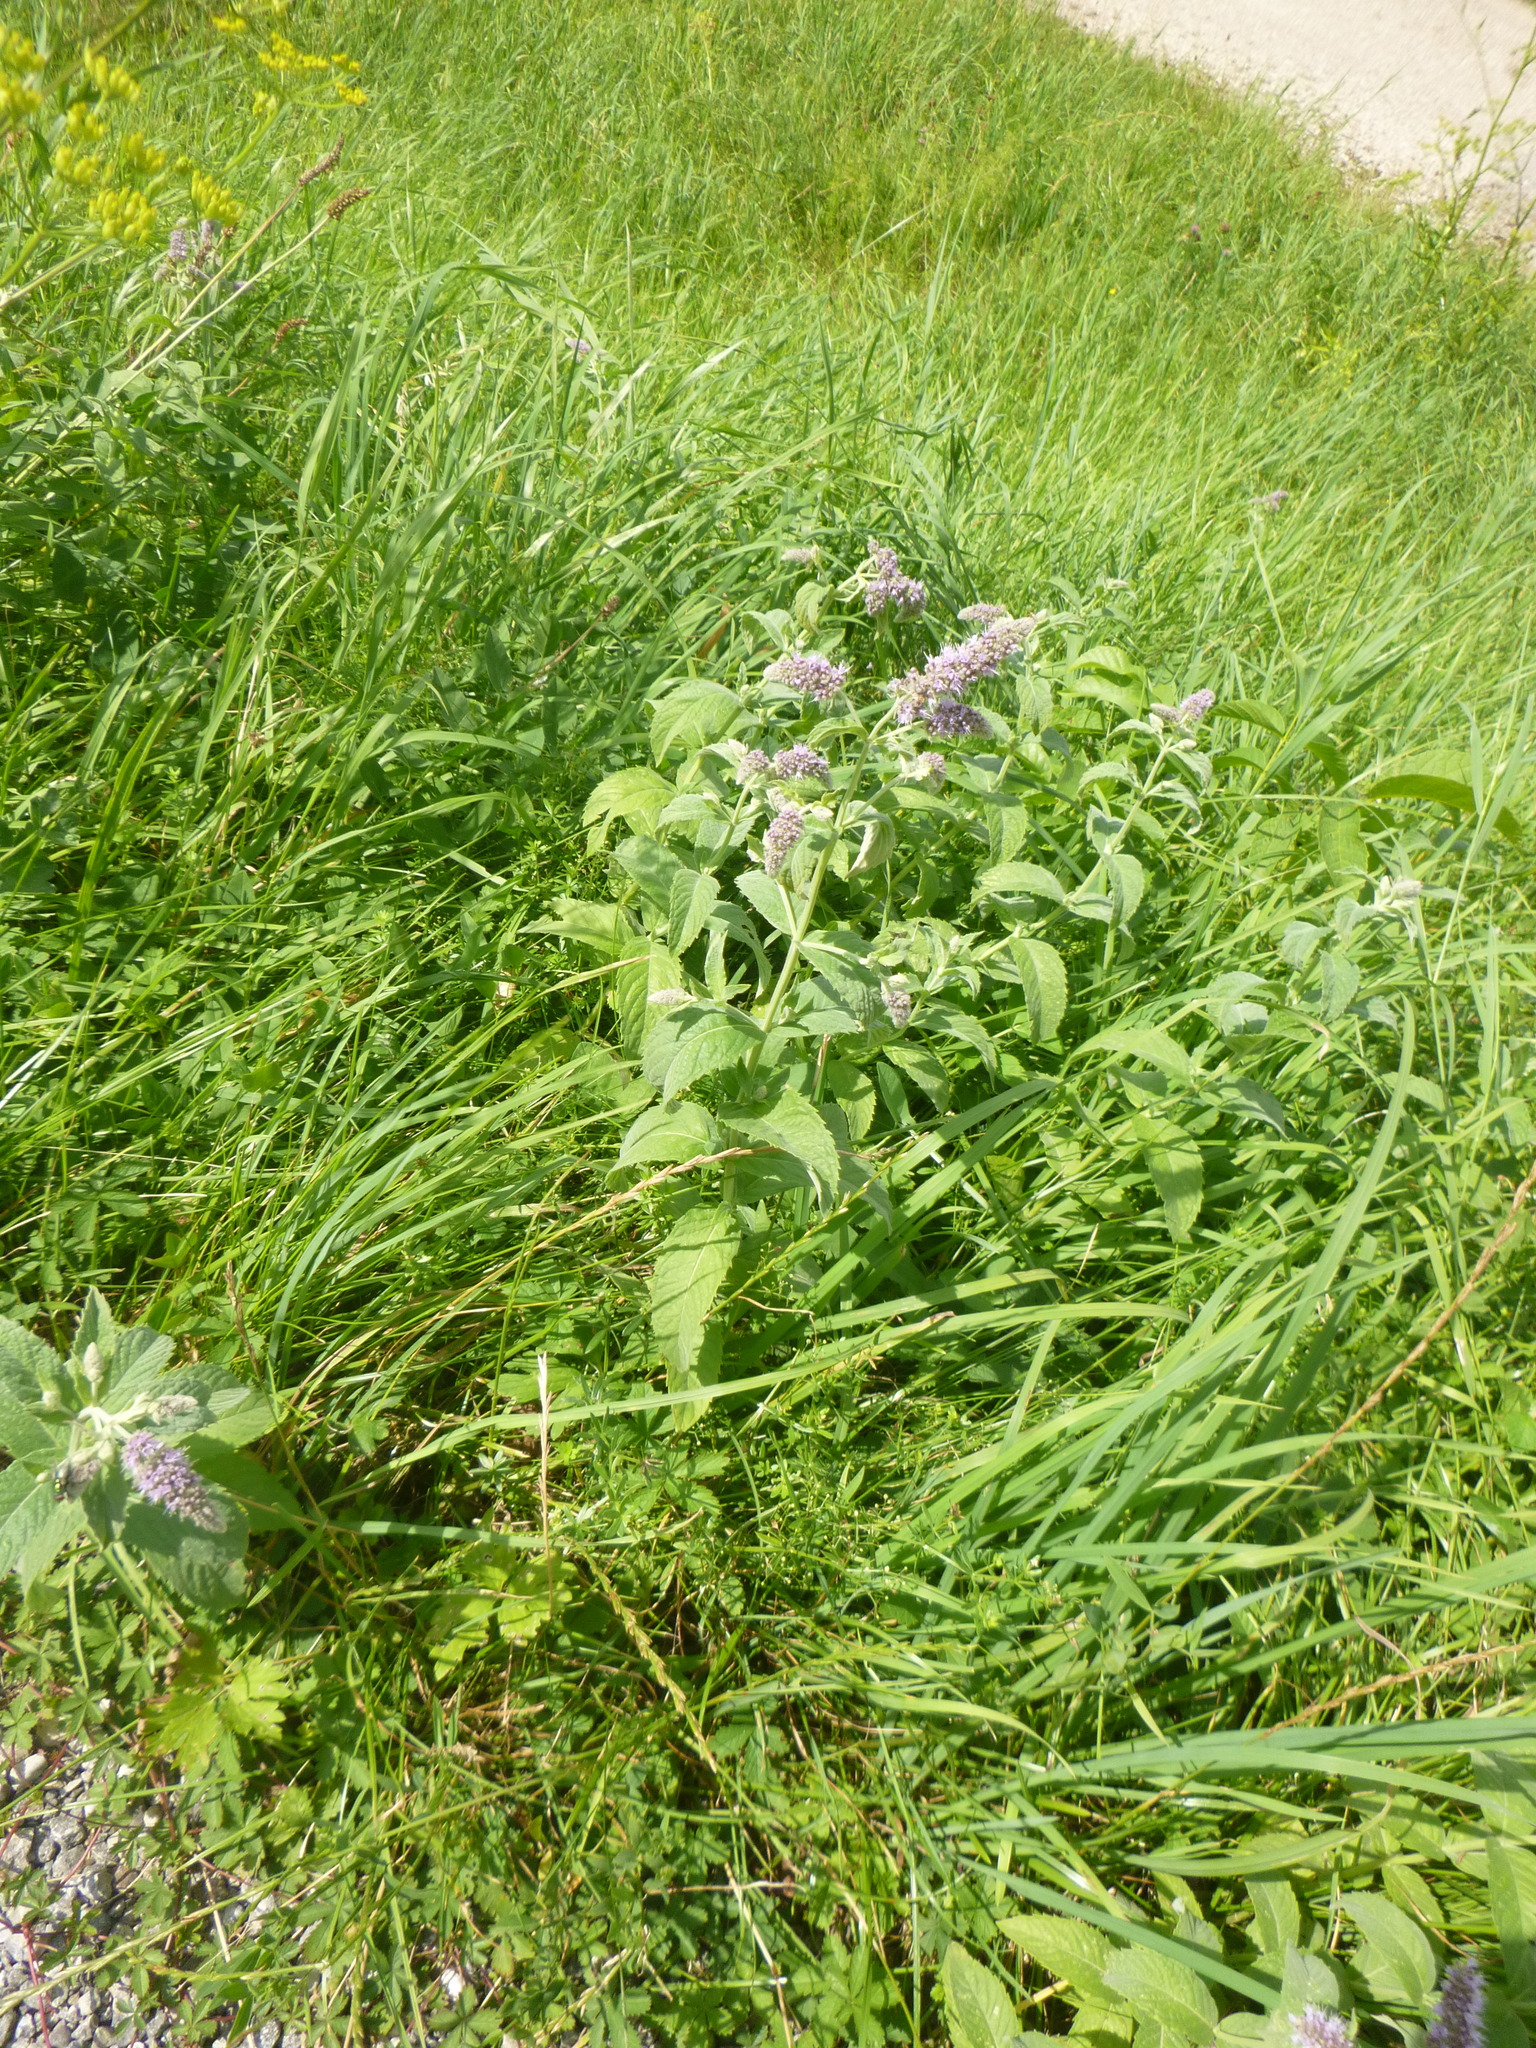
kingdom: Plantae
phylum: Tracheophyta
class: Magnoliopsida
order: Lamiales
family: Lamiaceae
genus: Mentha
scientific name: Mentha longifolia
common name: Horse mint
